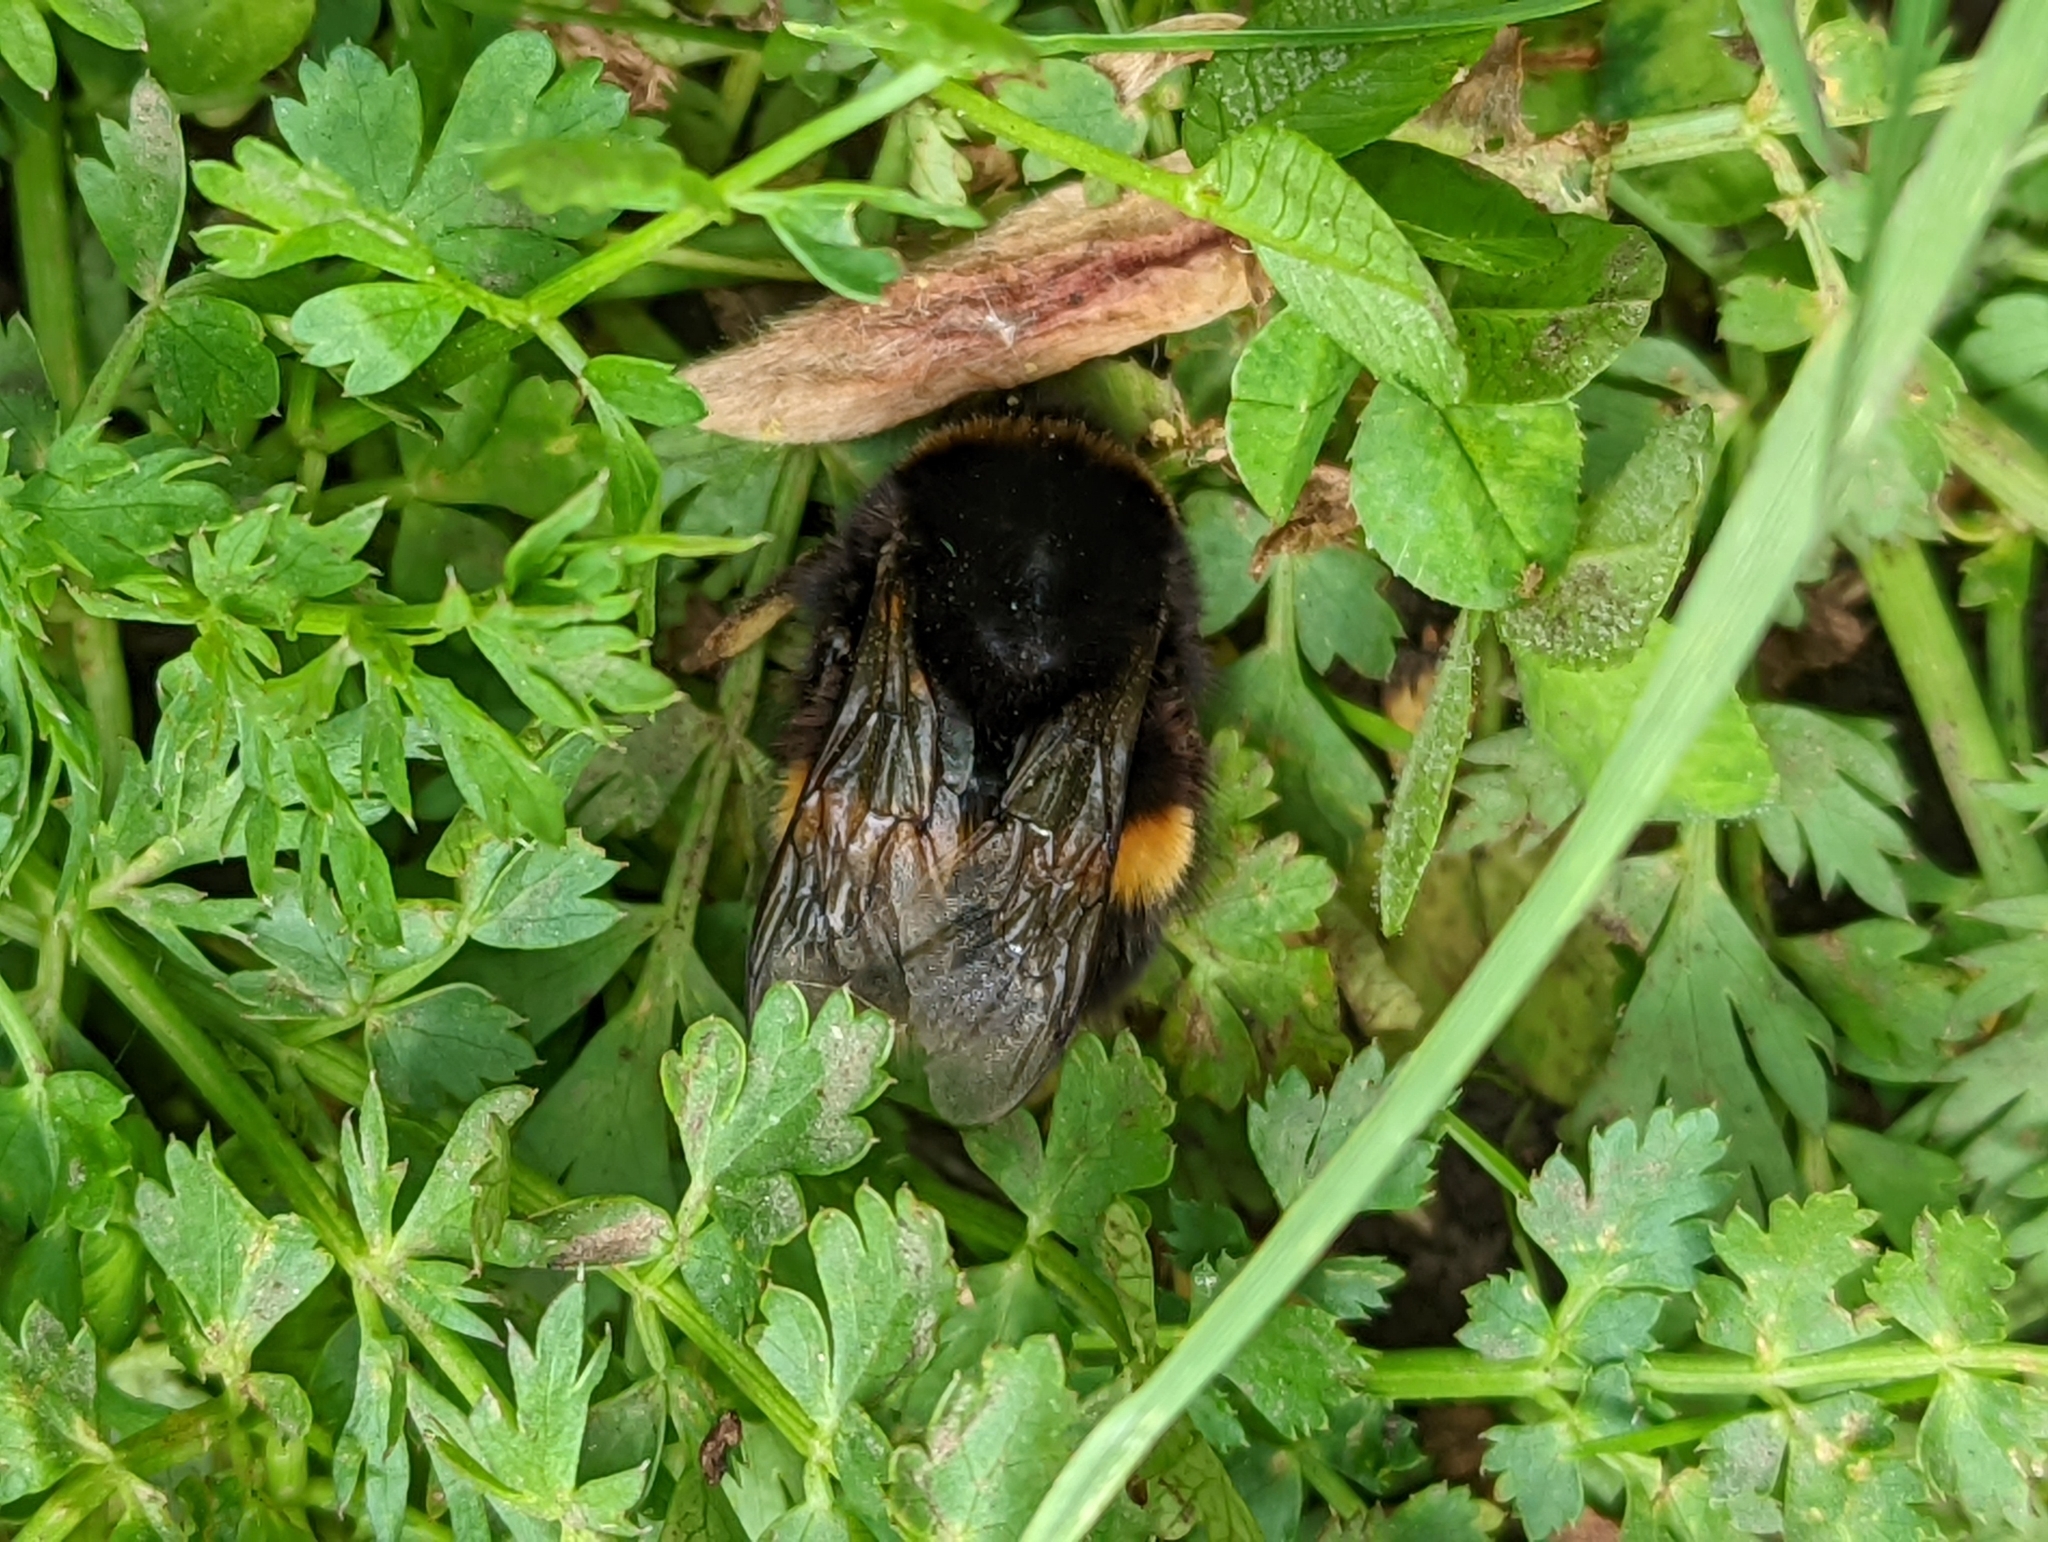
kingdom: Animalia
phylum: Arthropoda
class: Insecta
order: Hymenoptera
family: Apidae
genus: Bombus
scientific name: Bombus terrestris
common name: Buff-tailed bumblebee
